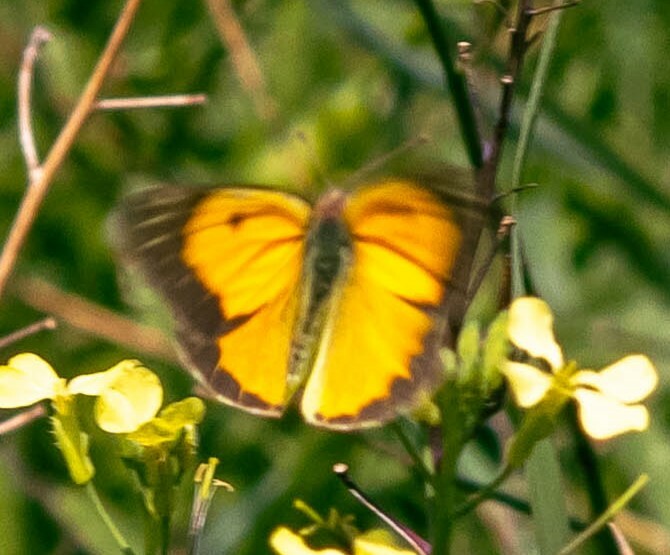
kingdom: Animalia
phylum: Arthropoda
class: Insecta
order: Lepidoptera
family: Pieridae
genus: Colias
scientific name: Colias croceus
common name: Clouded yellow
